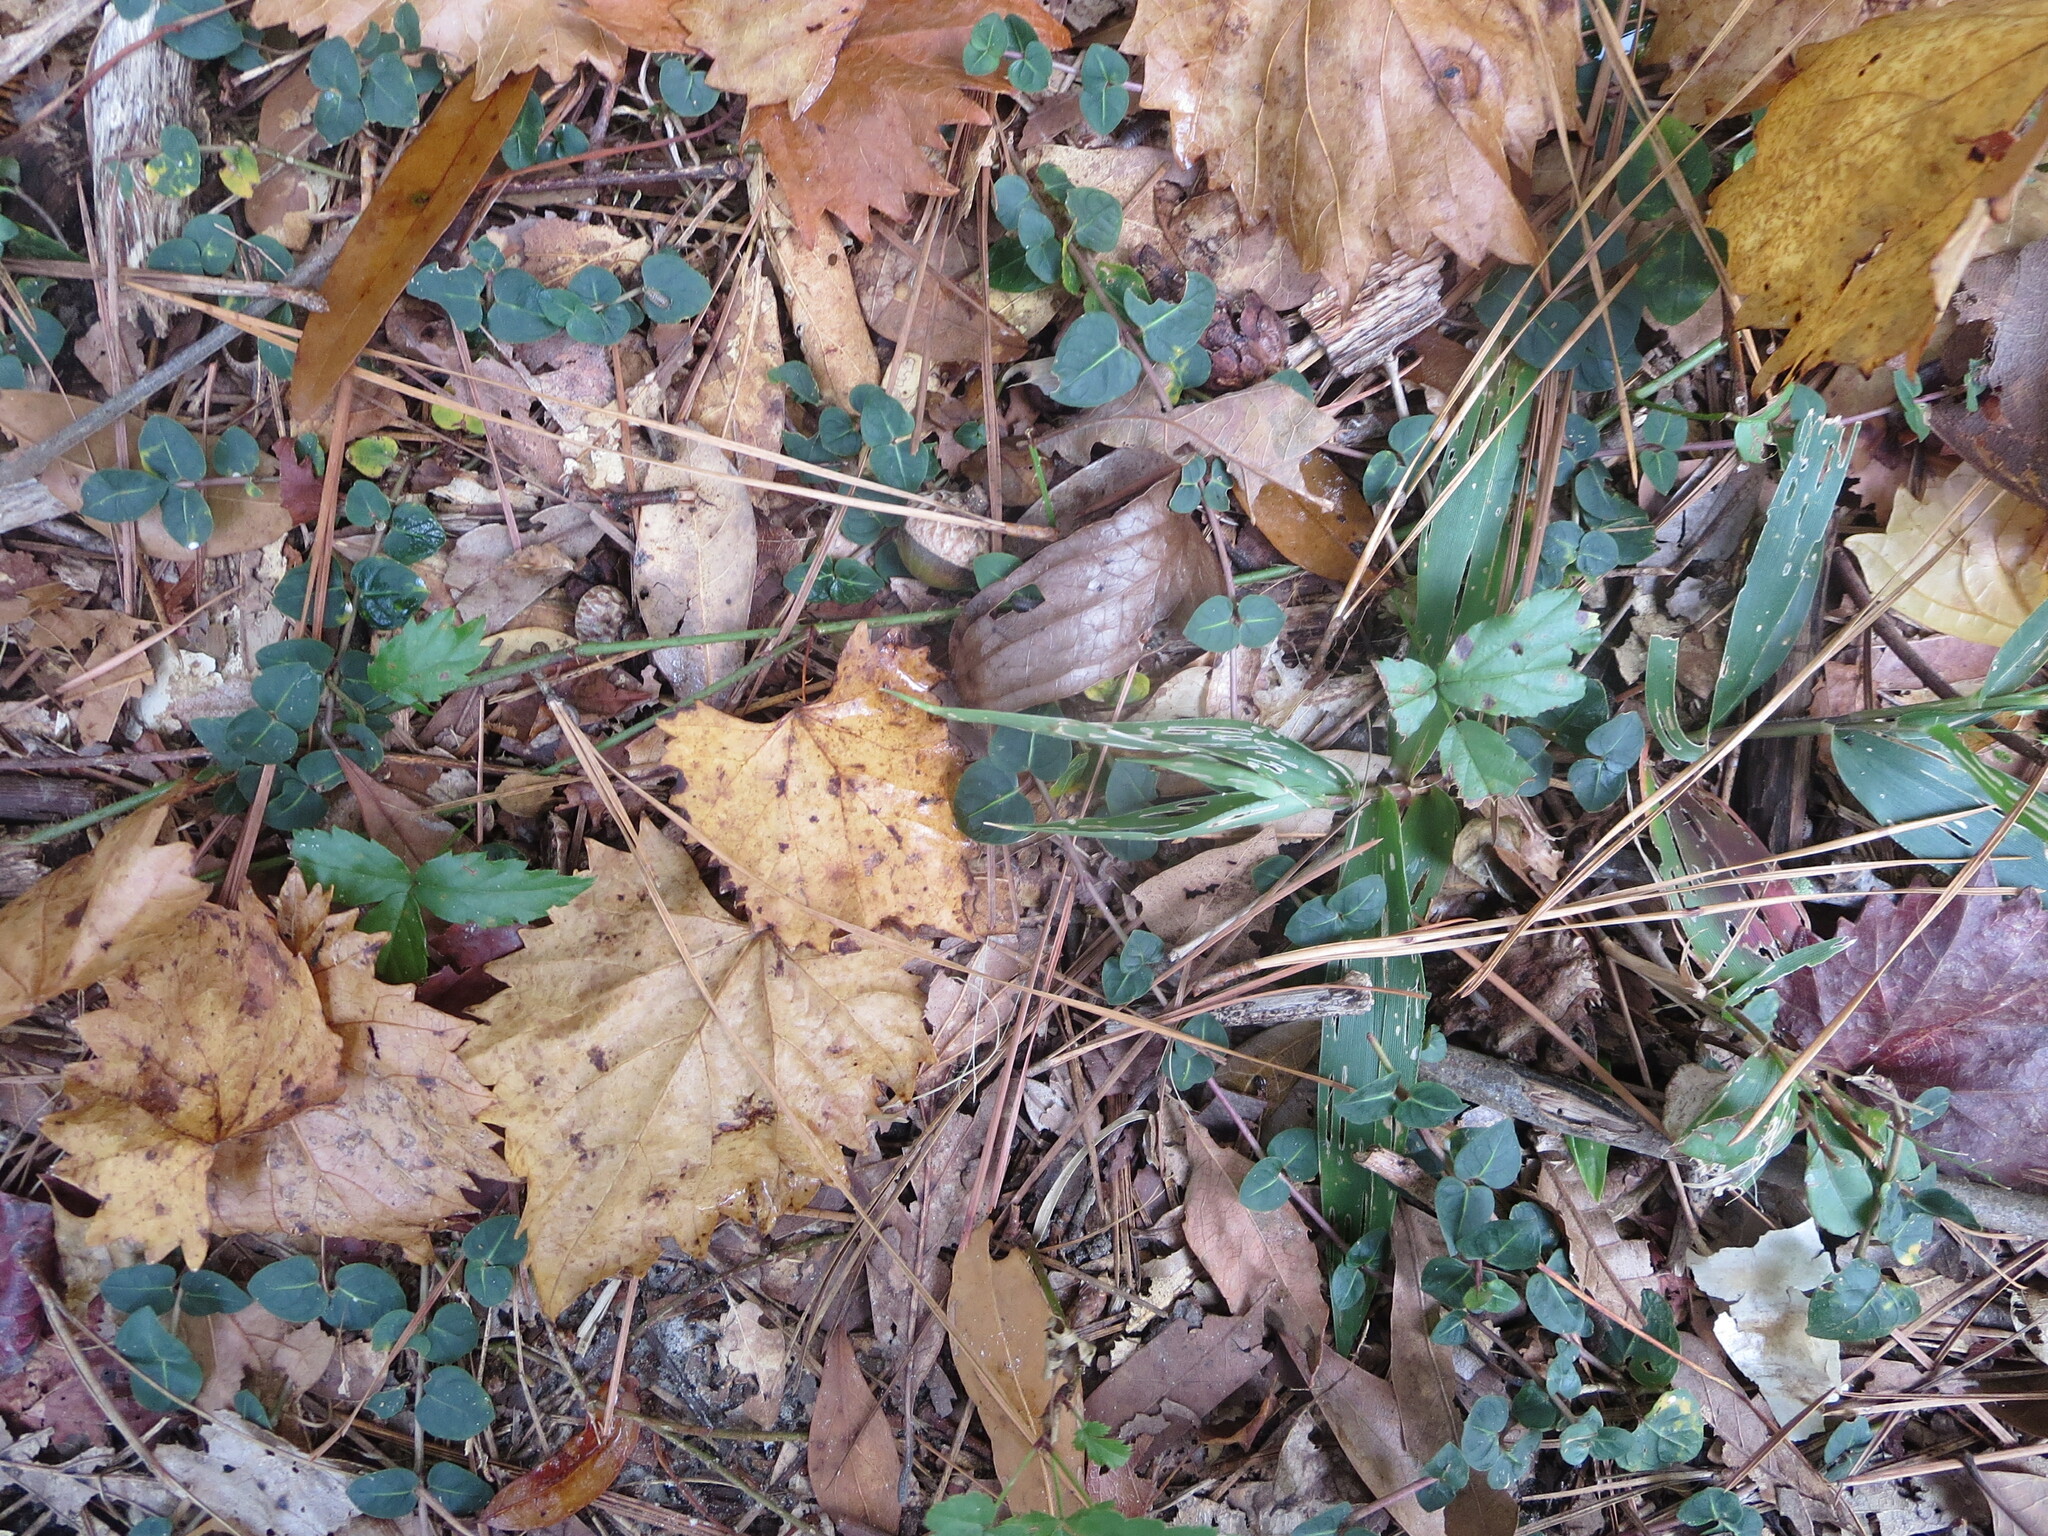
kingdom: Plantae
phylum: Tracheophyta
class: Magnoliopsida
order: Vitales
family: Vitaceae
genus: Vitis
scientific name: Vitis rotundifolia
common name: Muscadine grape
